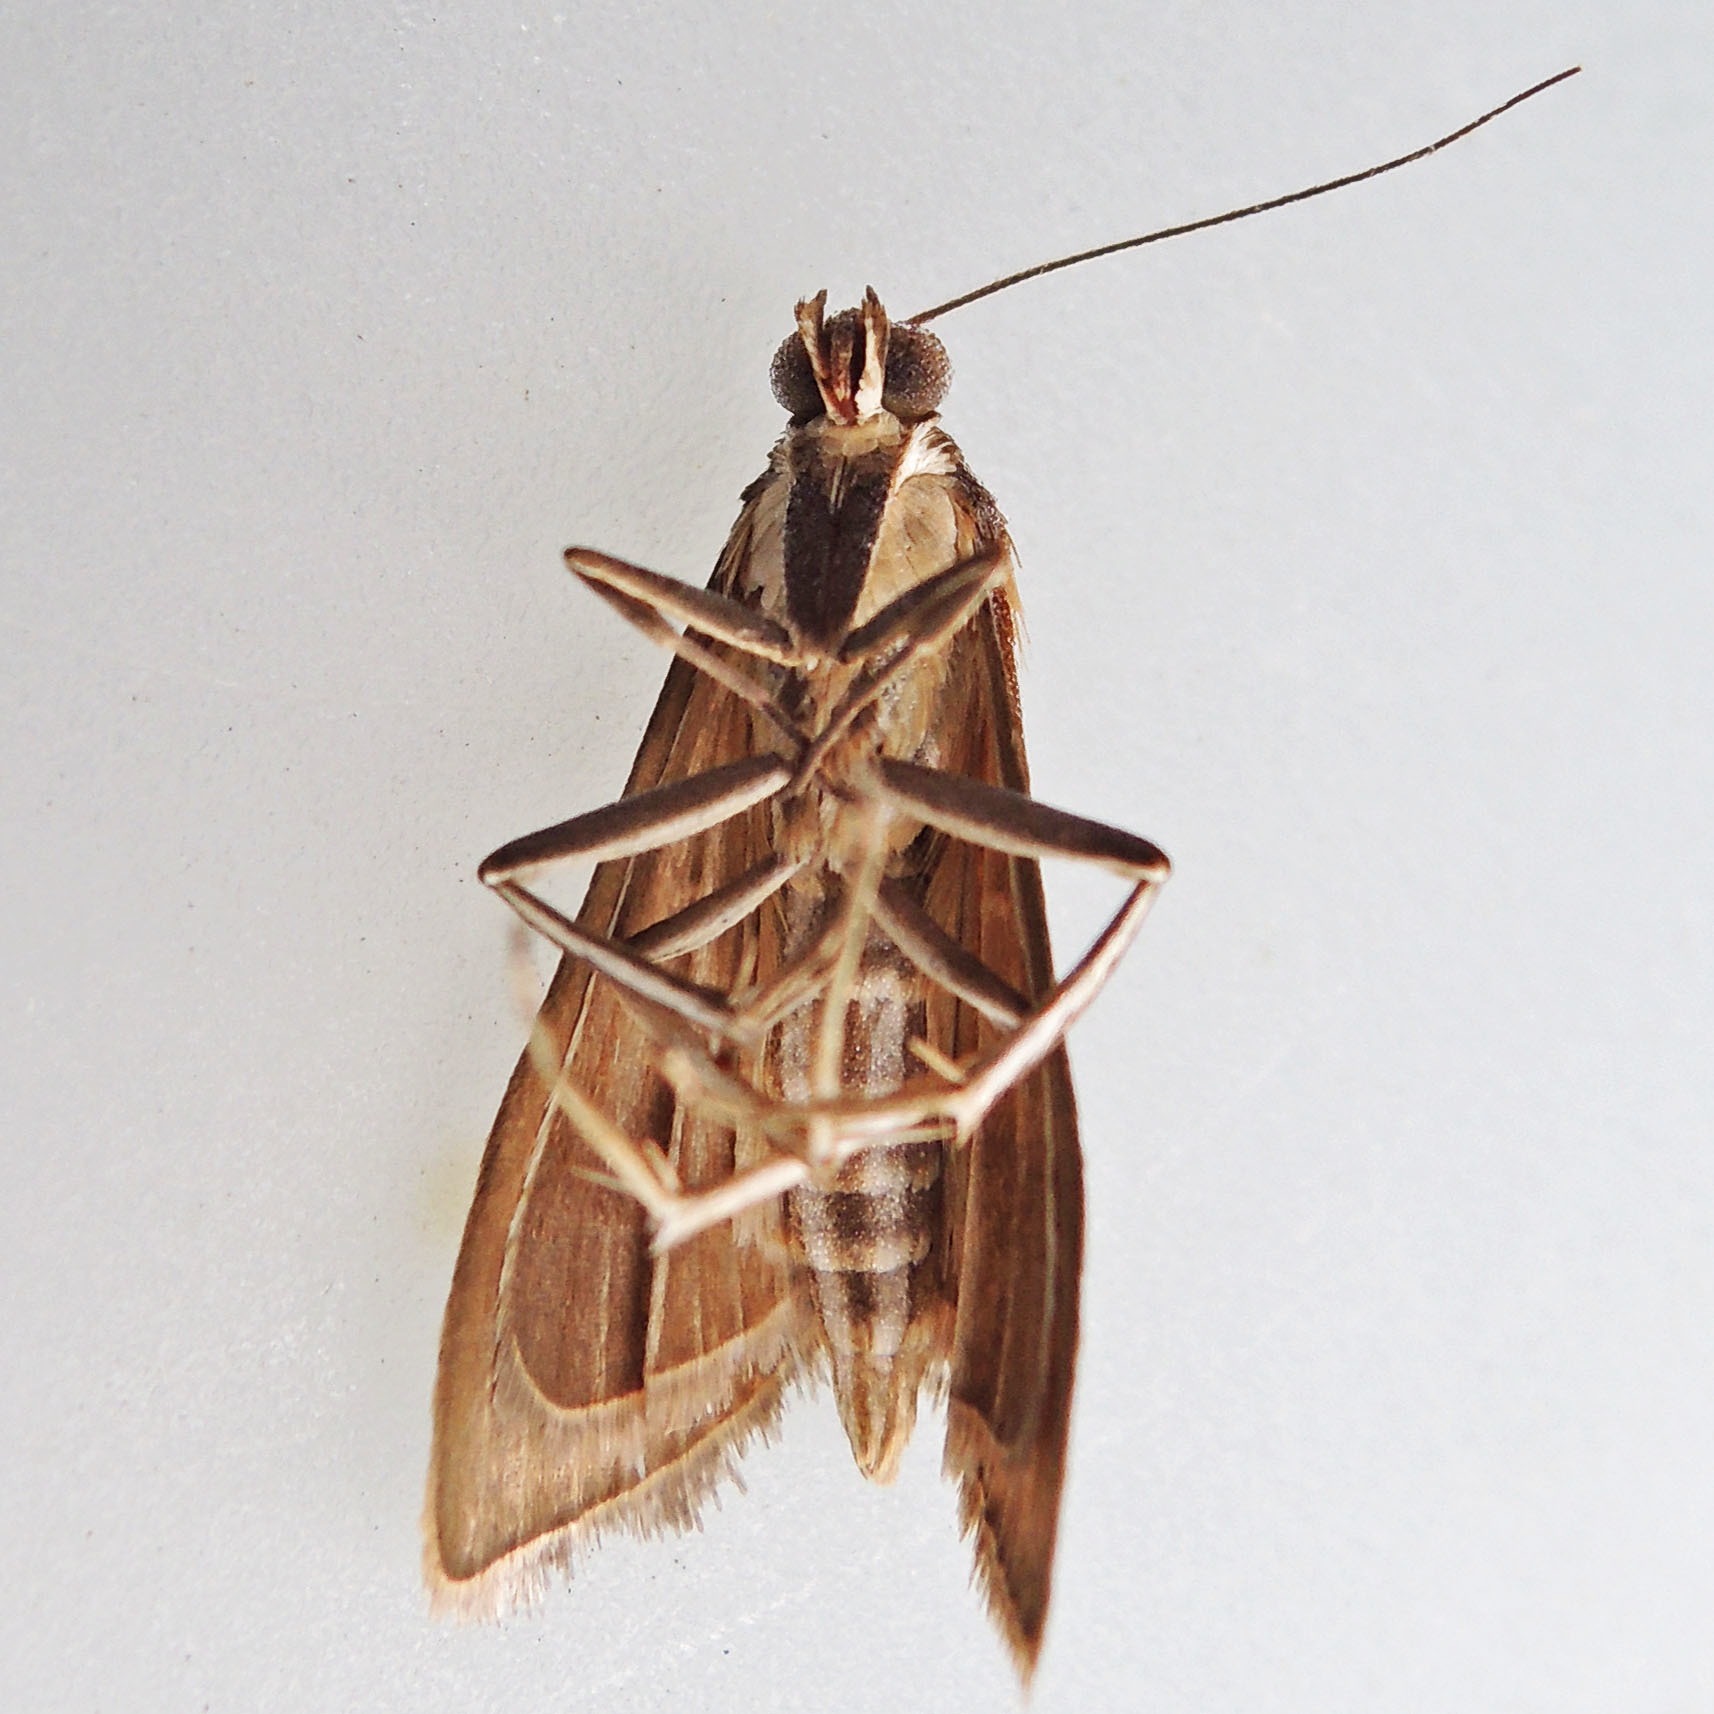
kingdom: Animalia
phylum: Arthropoda
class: Insecta
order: Lepidoptera
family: Crambidae
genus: Diastictis
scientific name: Diastictis ventralis
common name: White-spotted brown
